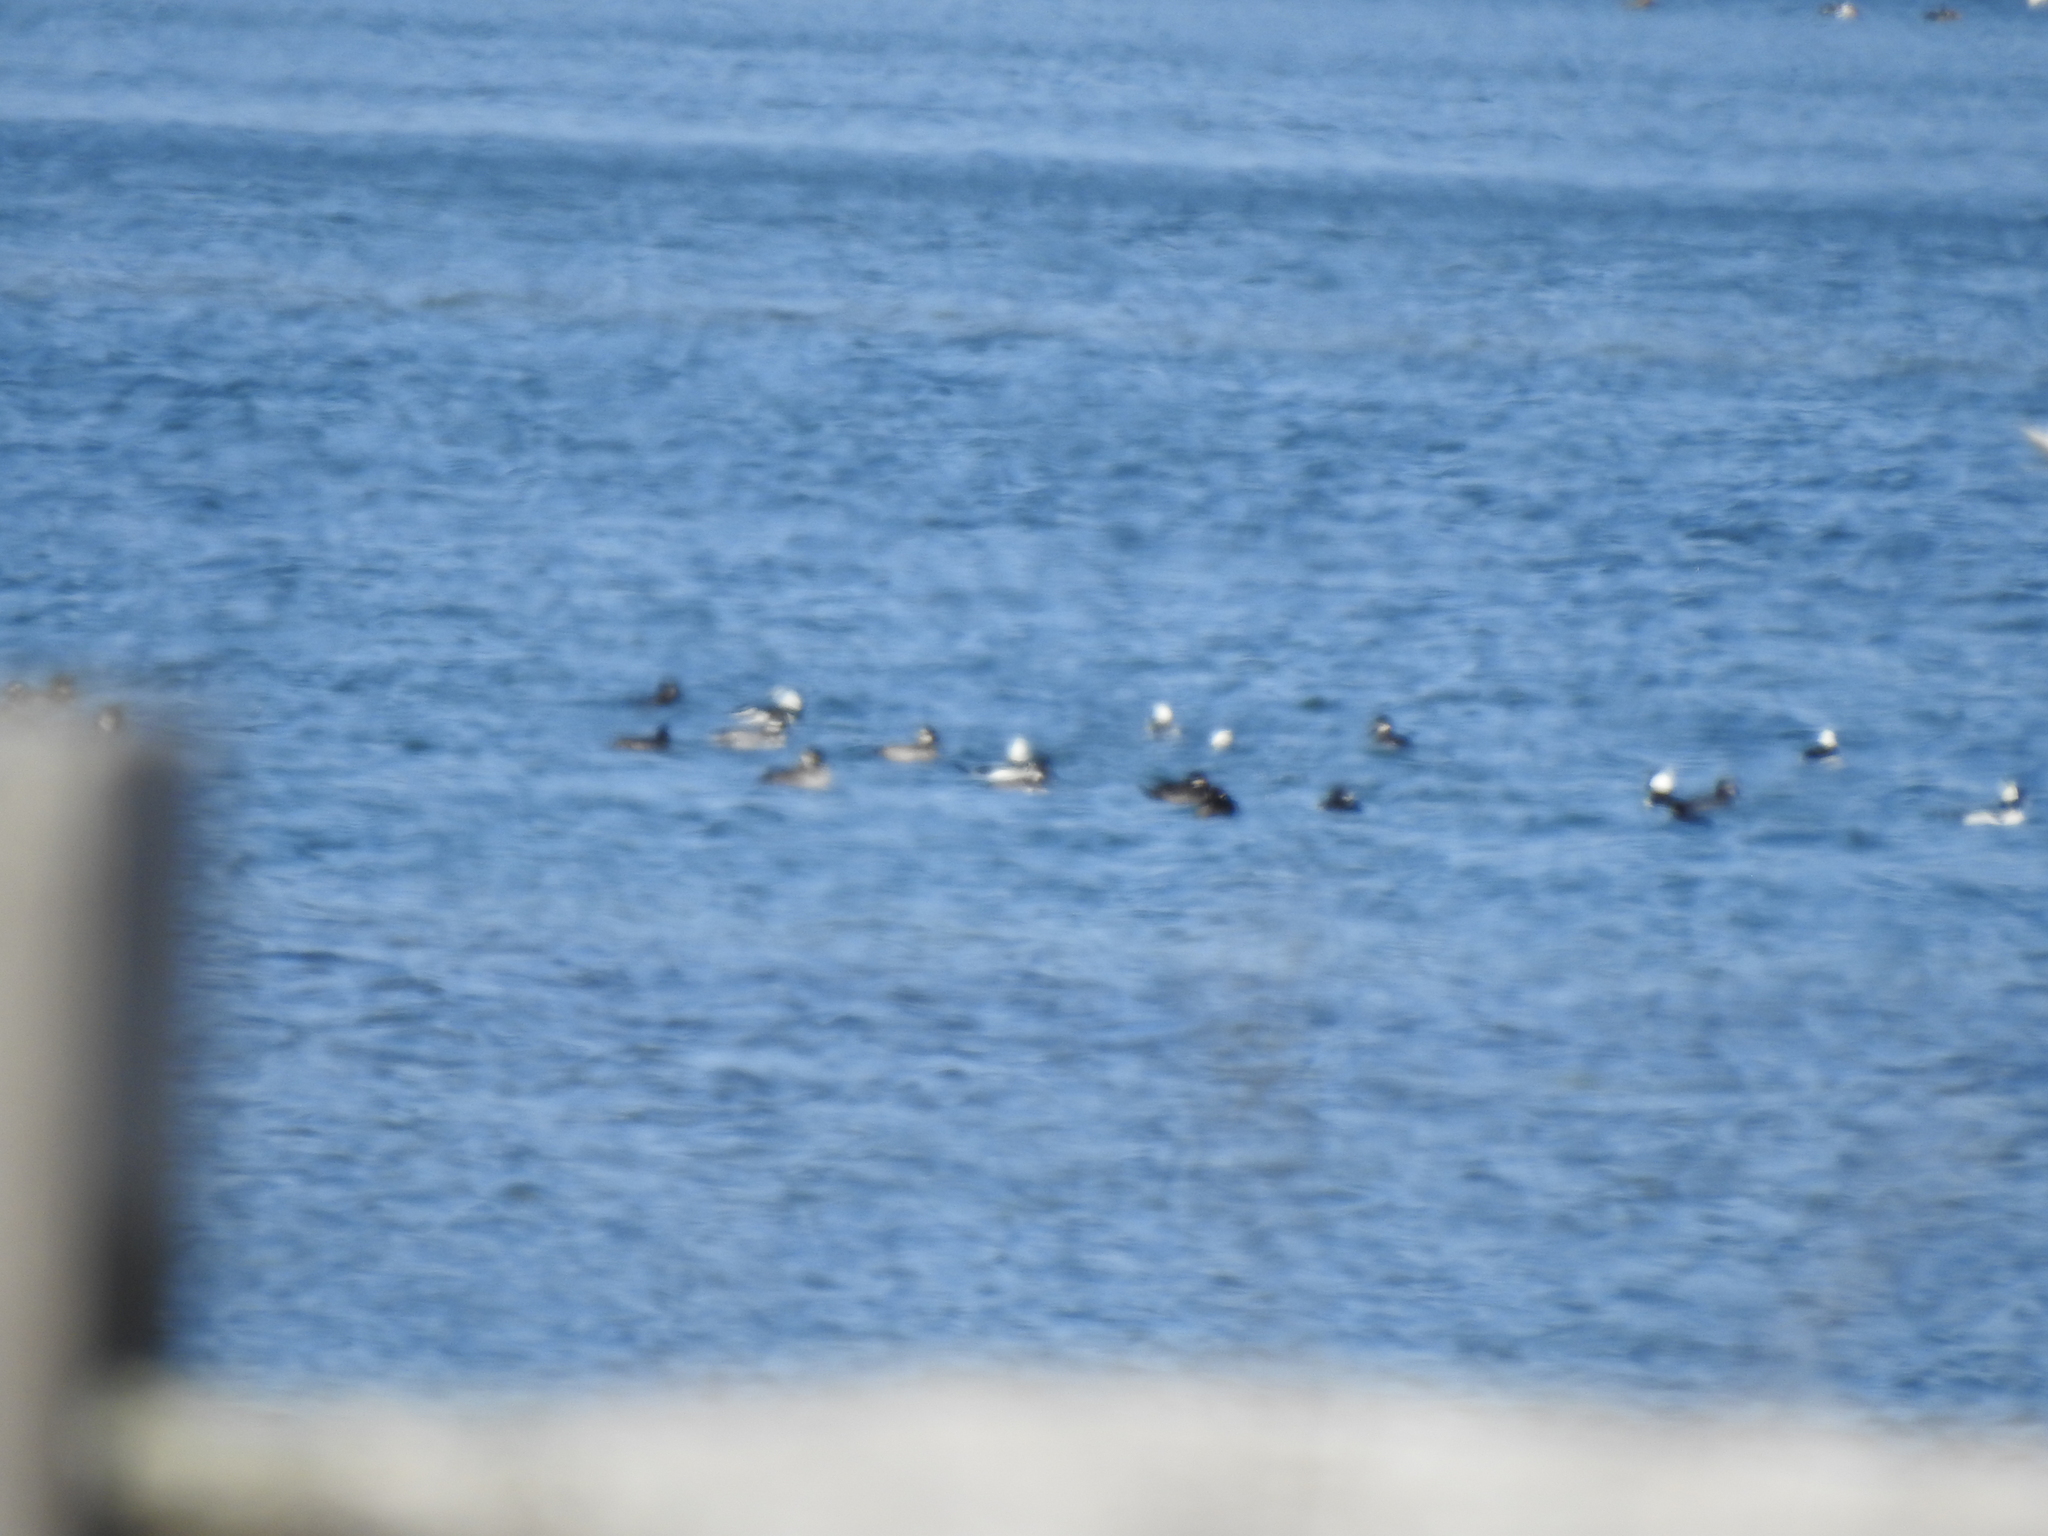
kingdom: Animalia
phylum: Chordata
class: Aves
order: Anseriformes
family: Anatidae
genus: Bucephala
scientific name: Bucephala albeola
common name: Bufflehead
